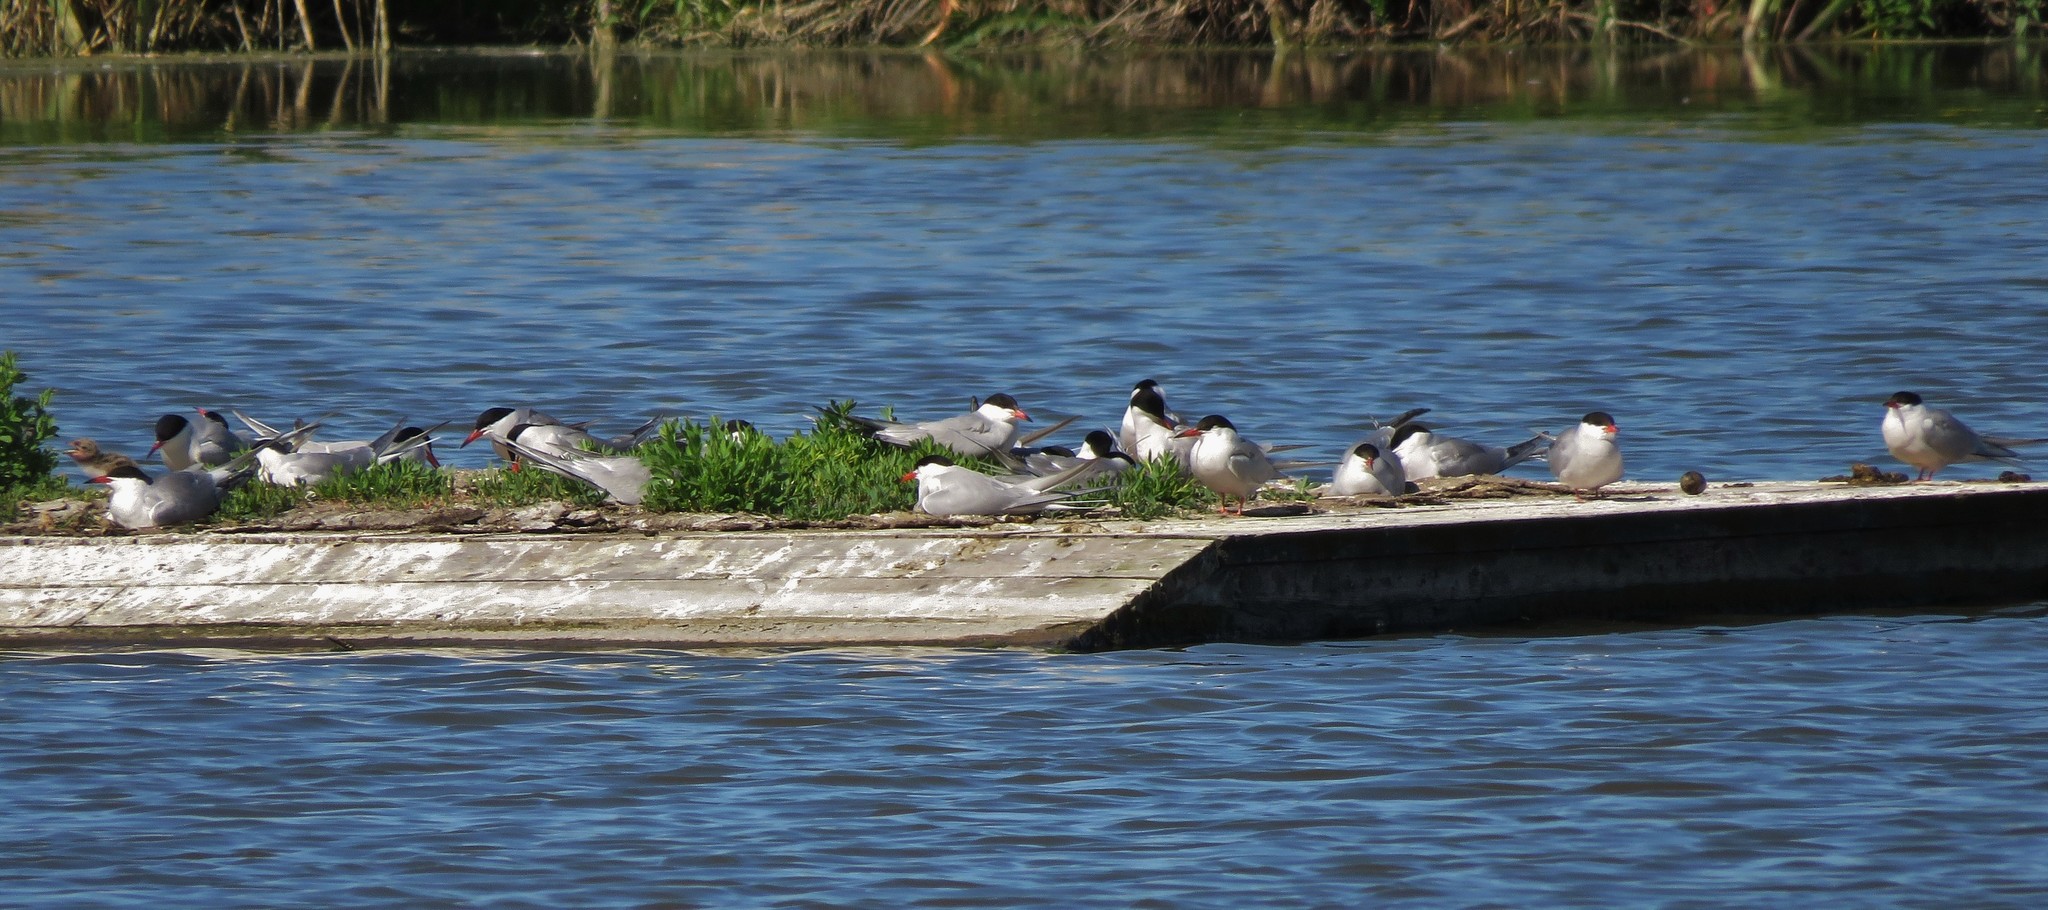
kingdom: Animalia
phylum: Chordata
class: Aves
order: Charadriiformes
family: Laridae
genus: Sterna
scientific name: Sterna hirundo
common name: Common tern
